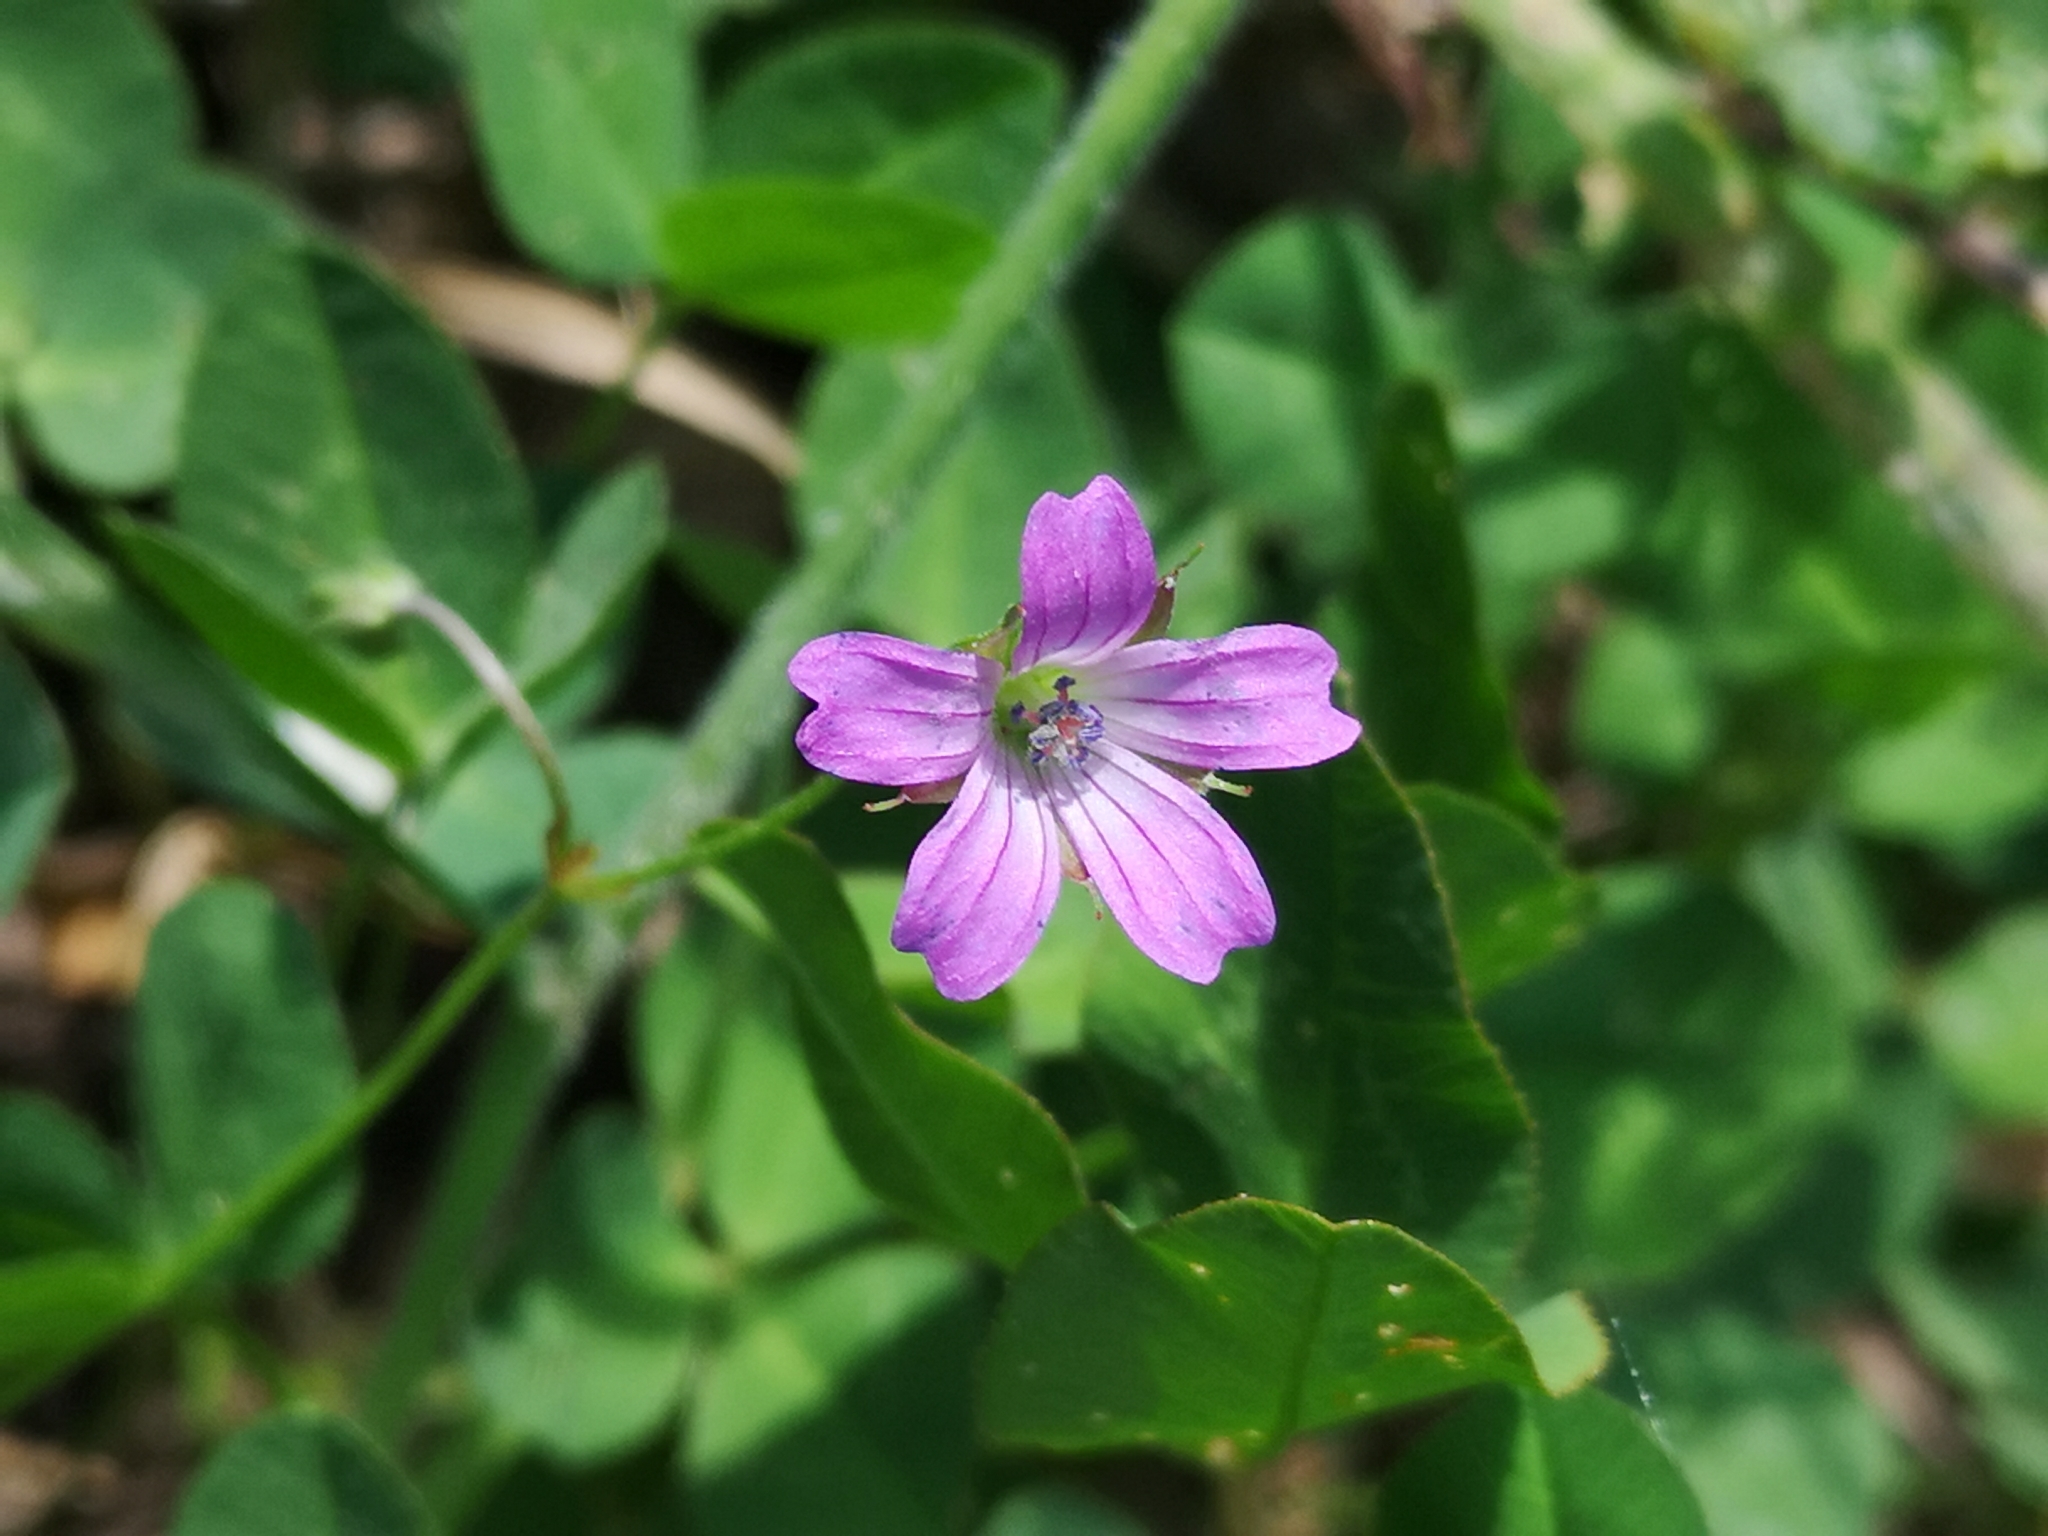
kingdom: Plantae
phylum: Tracheophyta
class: Magnoliopsida
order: Geraniales
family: Geraniaceae
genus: Geranium
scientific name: Geranium columbinum
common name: Long-stalked crane's-bill
